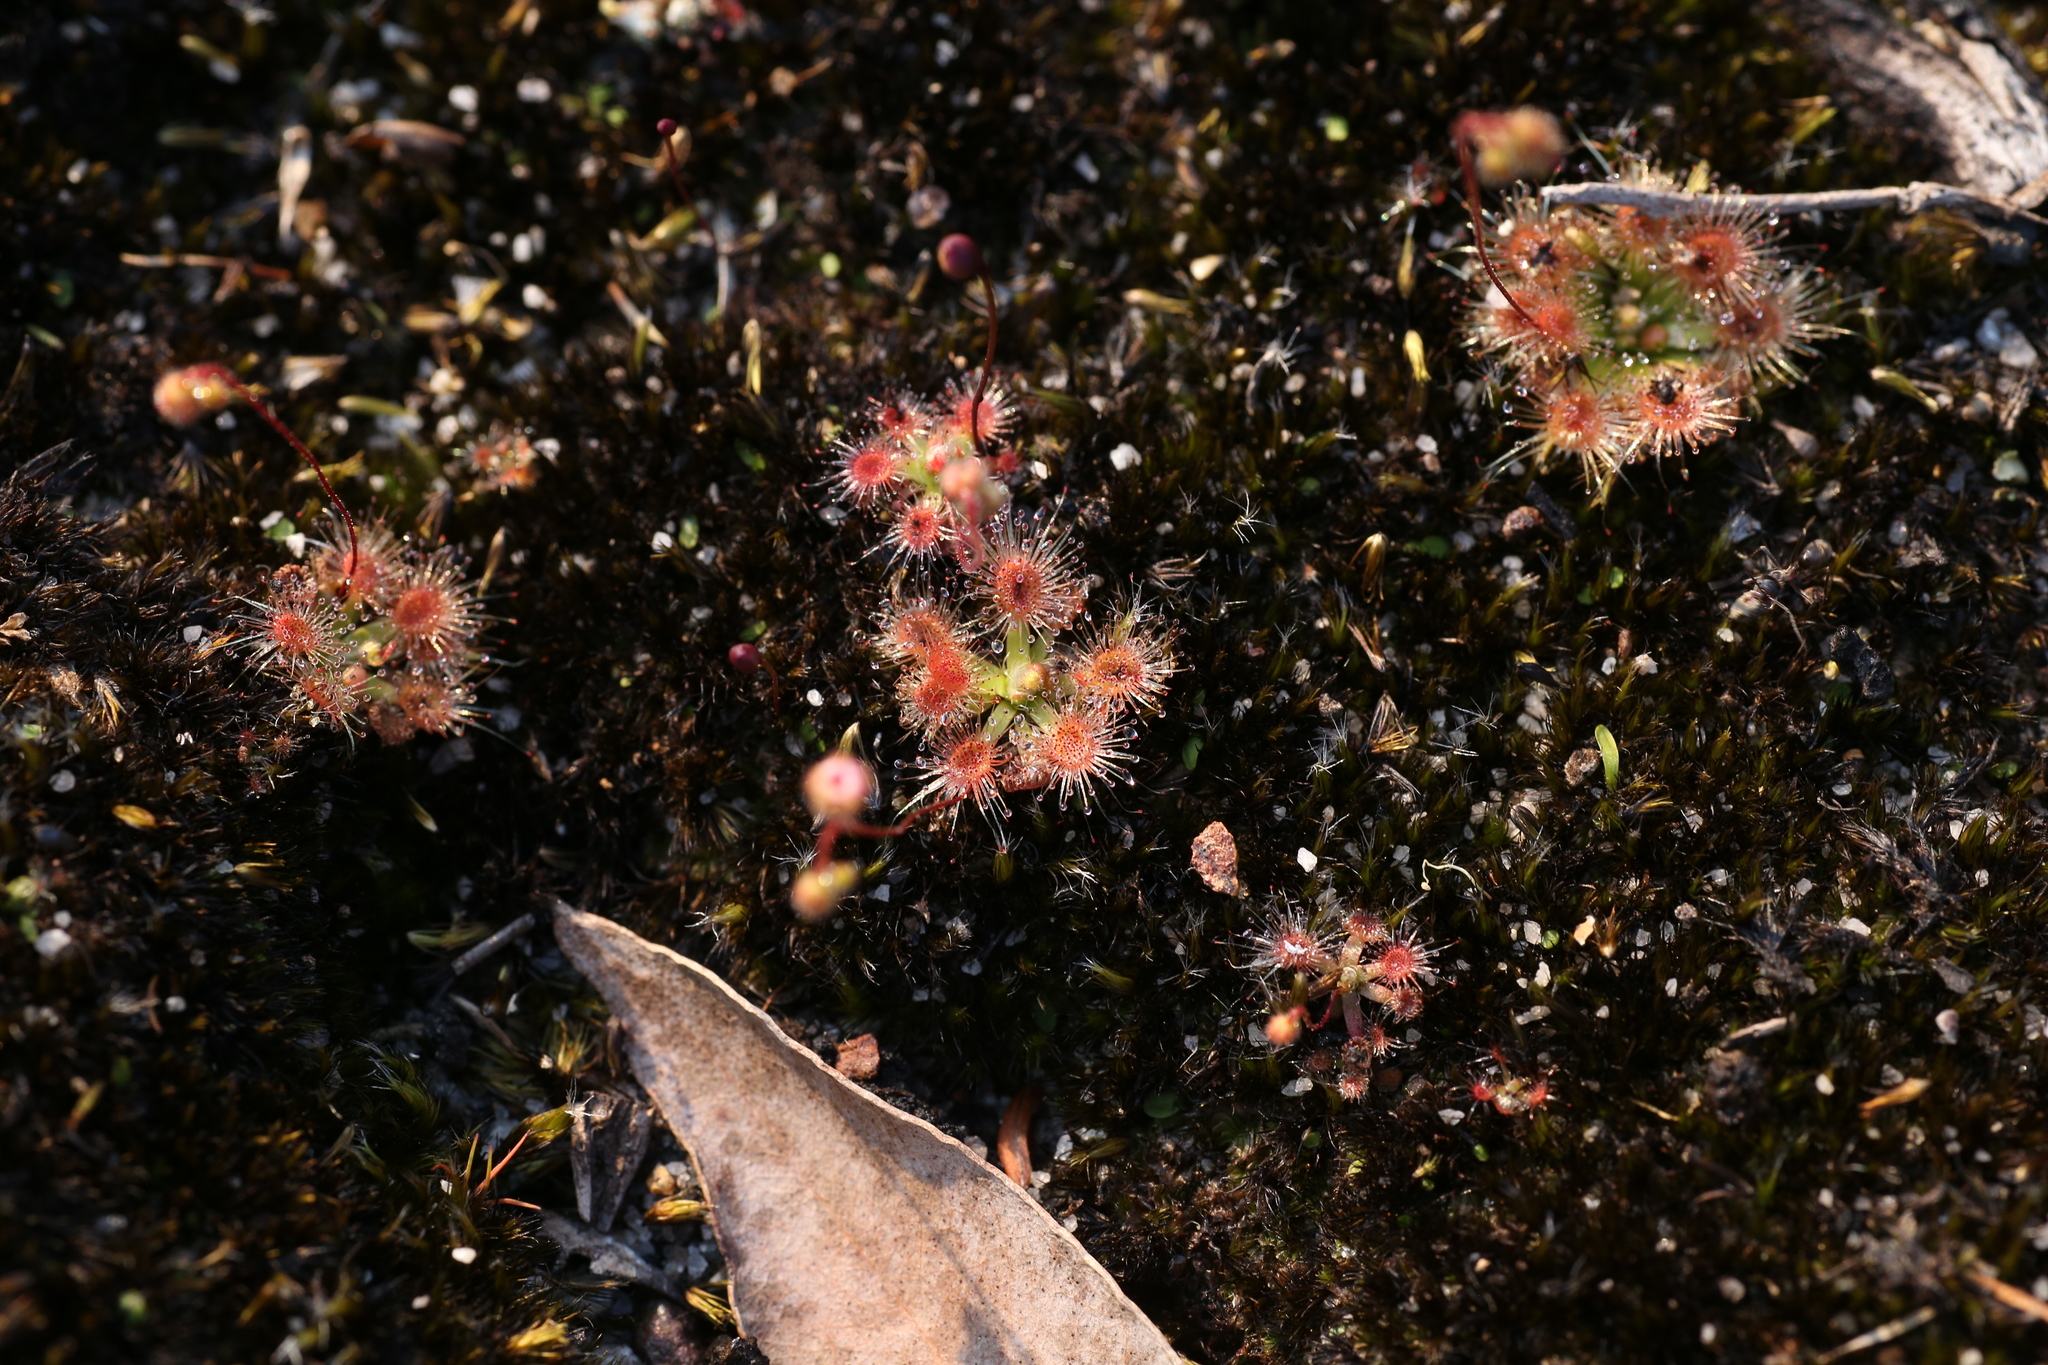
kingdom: Plantae
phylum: Tracheophyta
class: Magnoliopsida
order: Caryophyllales
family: Droseraceae
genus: Drosera
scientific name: Drosera pulchella
